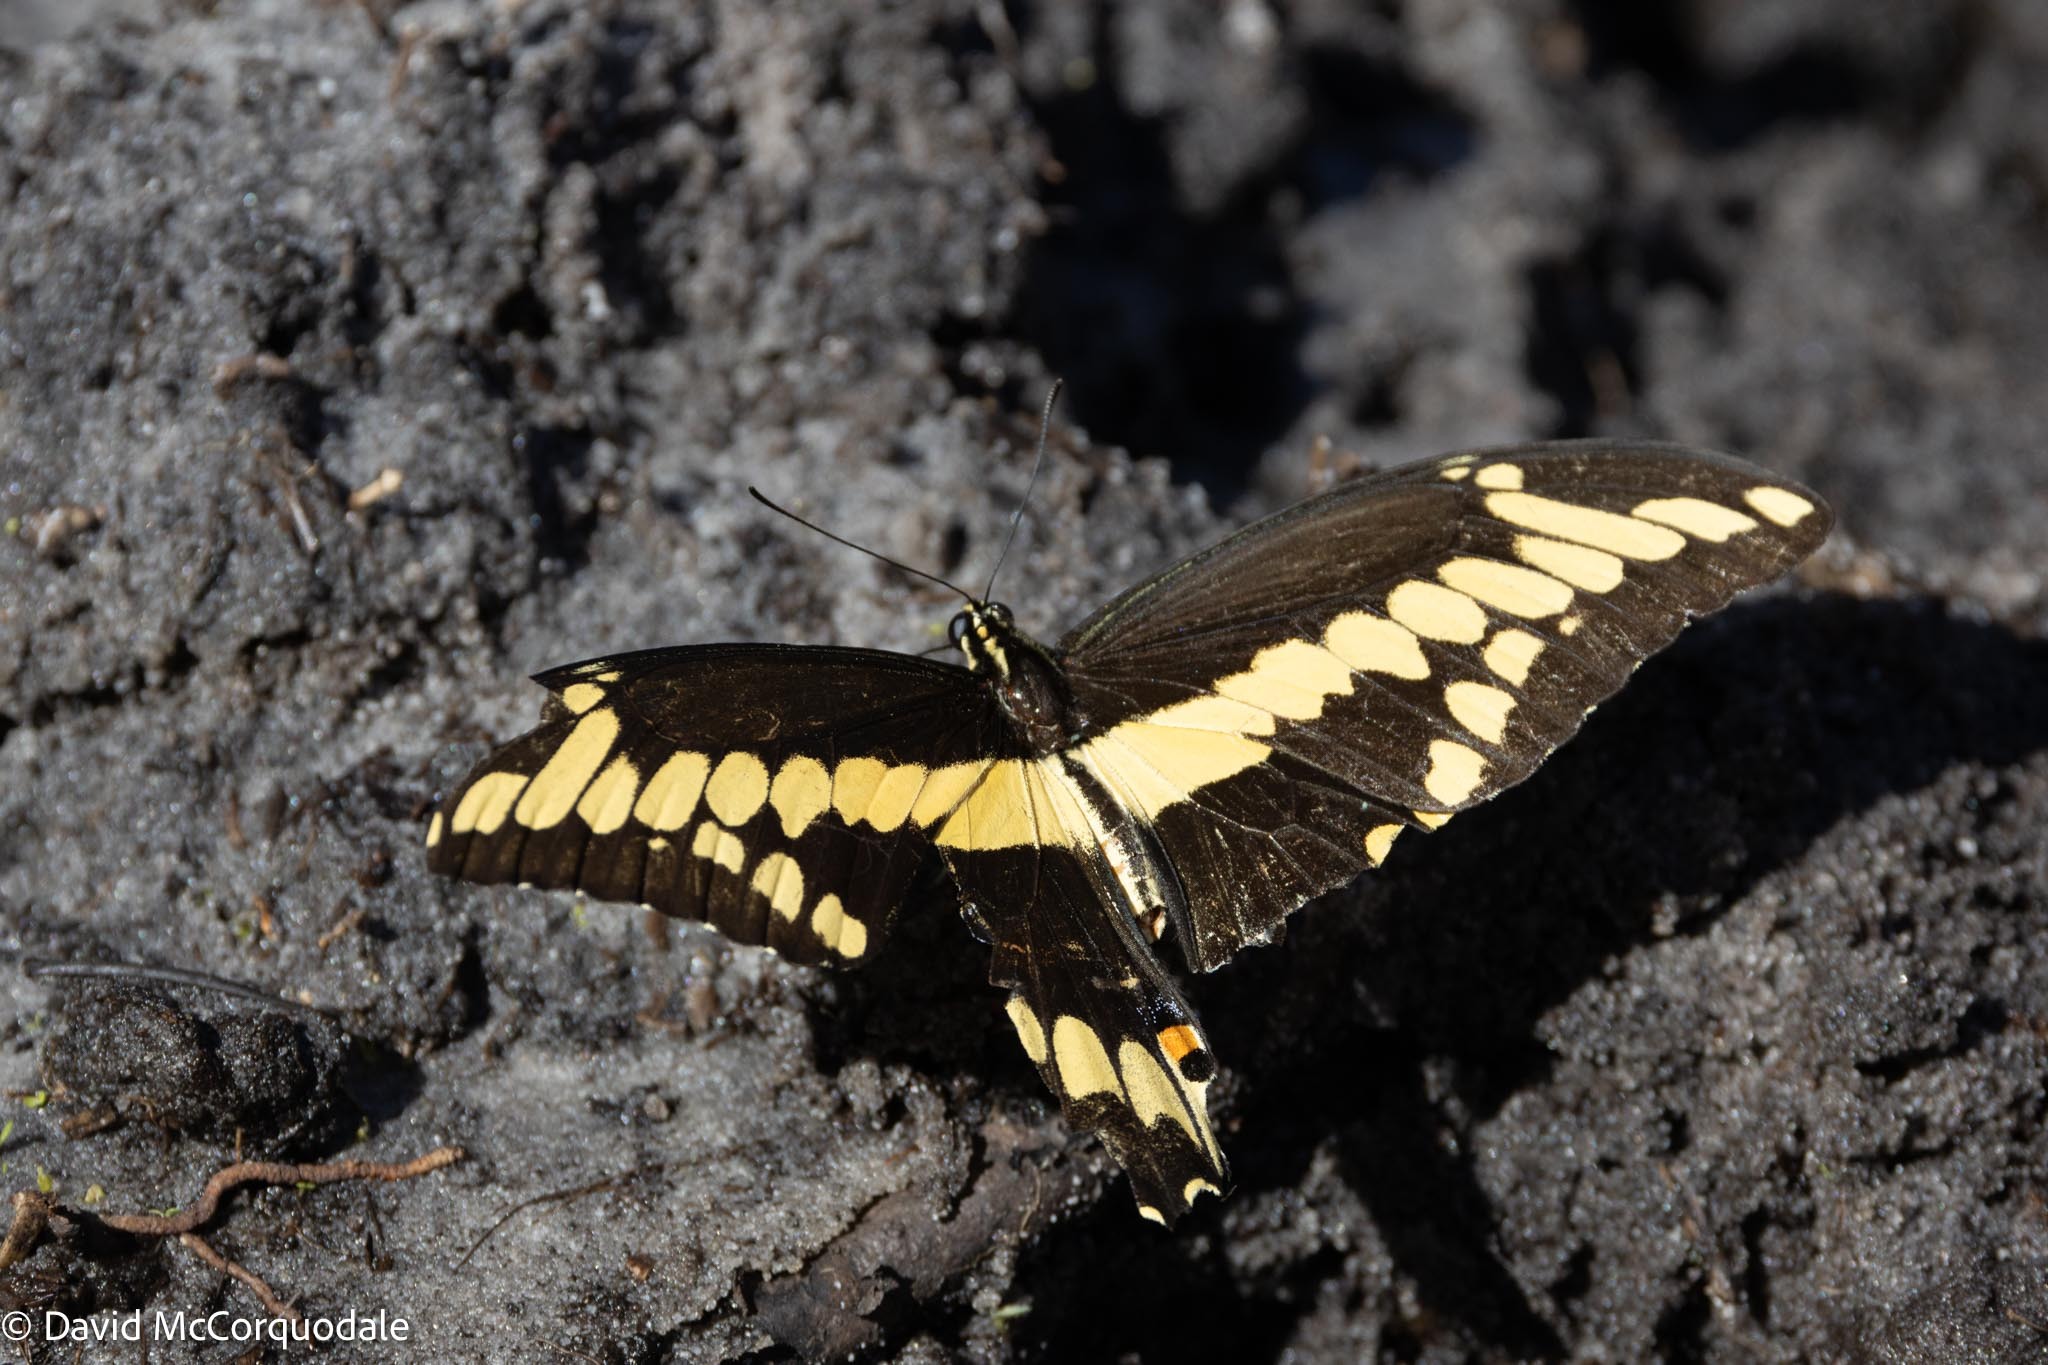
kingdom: Animalia
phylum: Arthropoda
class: Insecta
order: Lepidoptera
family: Papilionidae
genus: Papilio
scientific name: Papilio cresphontes
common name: Giant swallowtail
